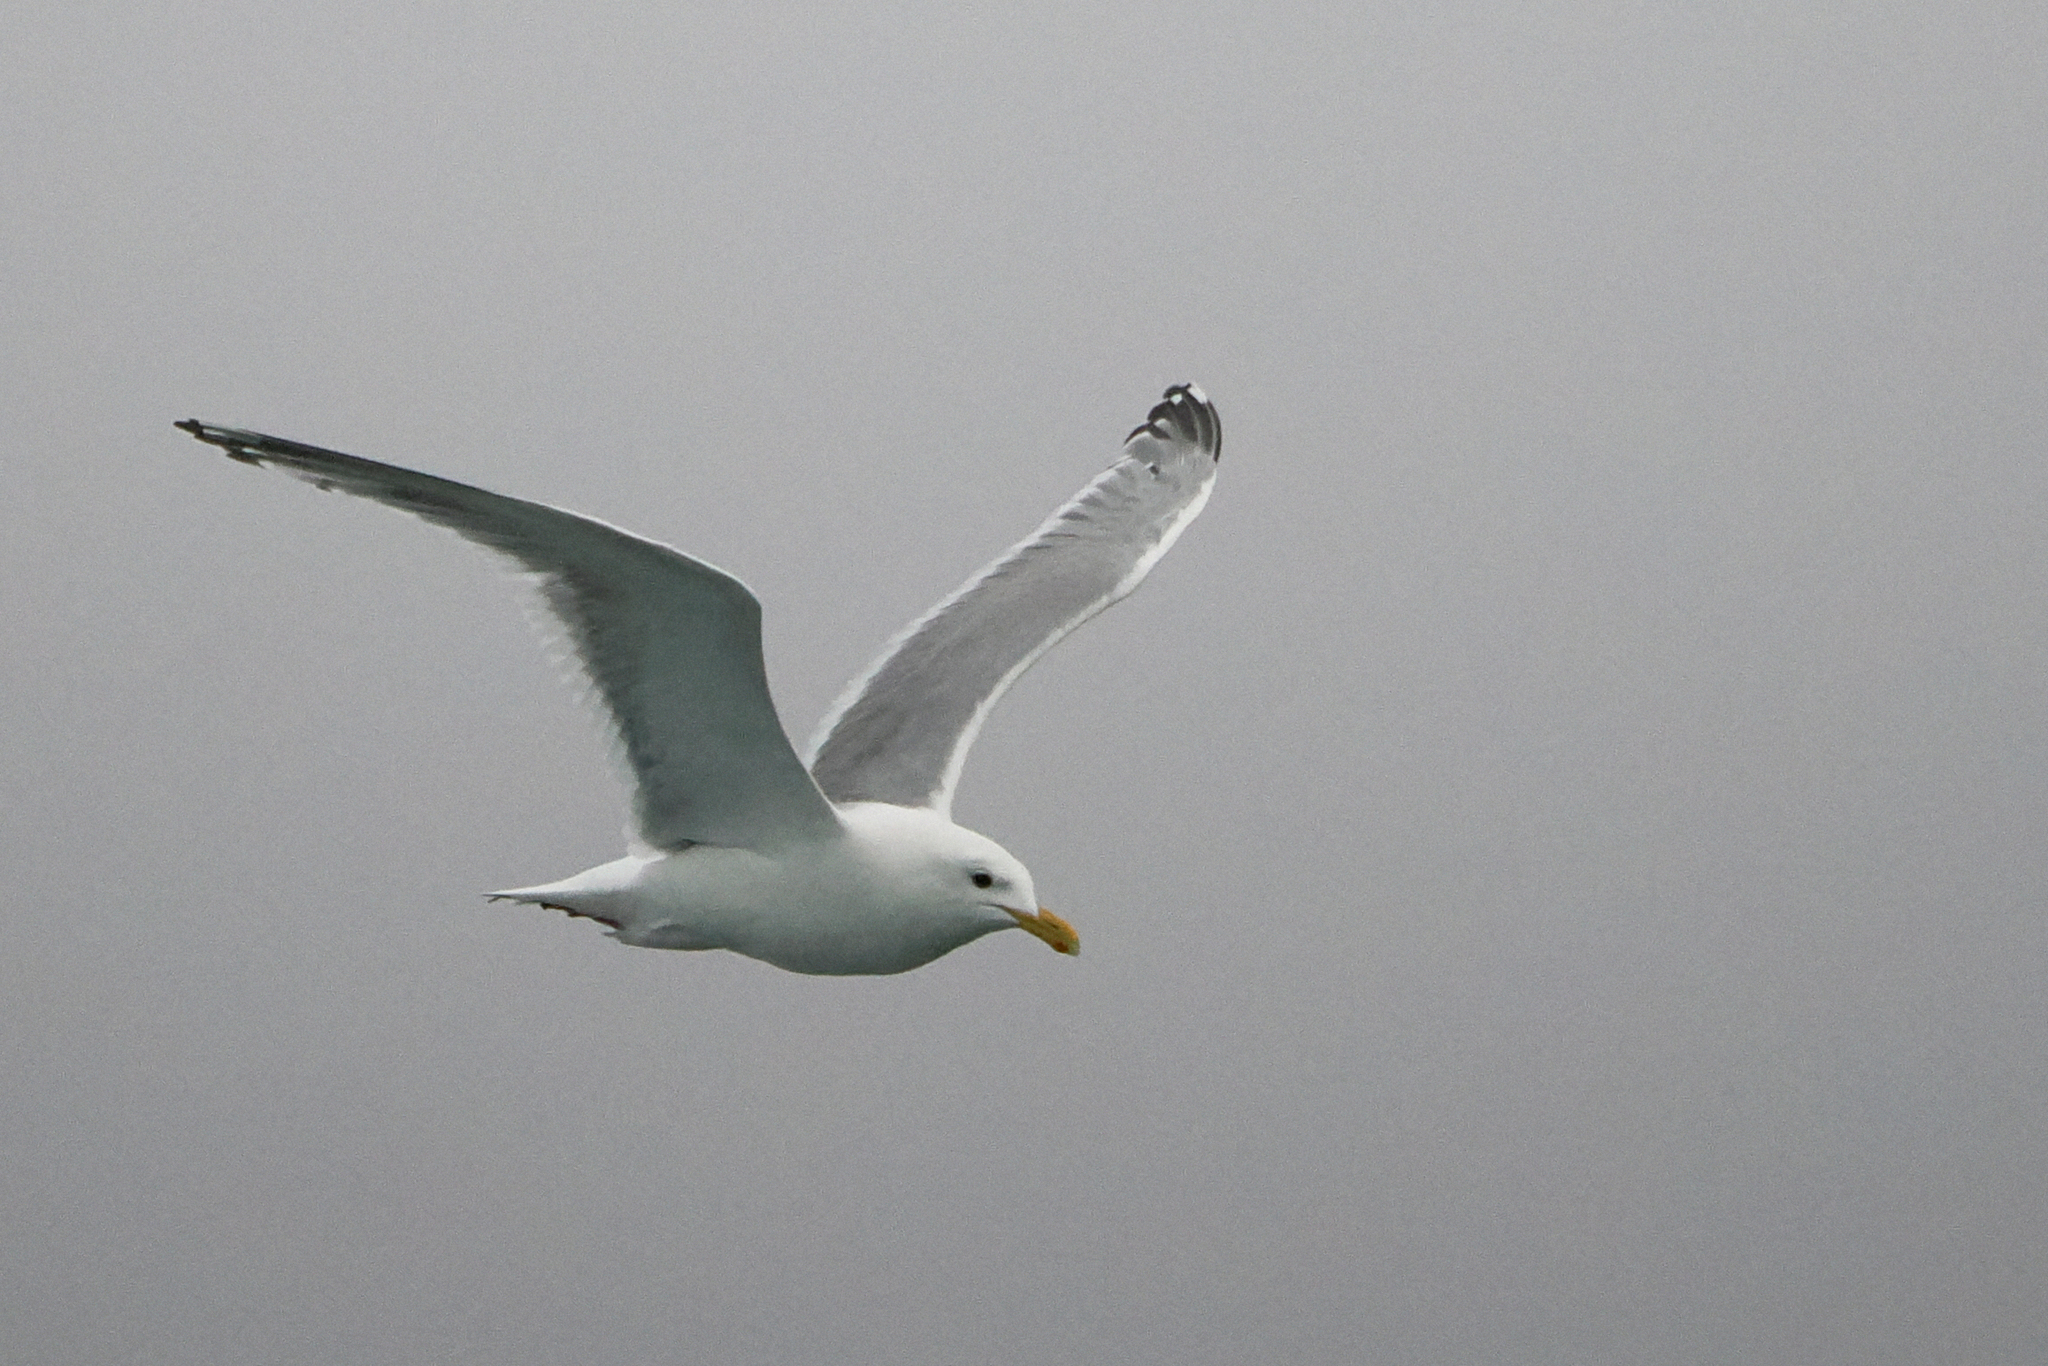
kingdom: Animalia
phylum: Chordata
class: Aves
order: Charadriiformes
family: Laridae
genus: Larus
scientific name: Larus glaucoides
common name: Iceland gull
